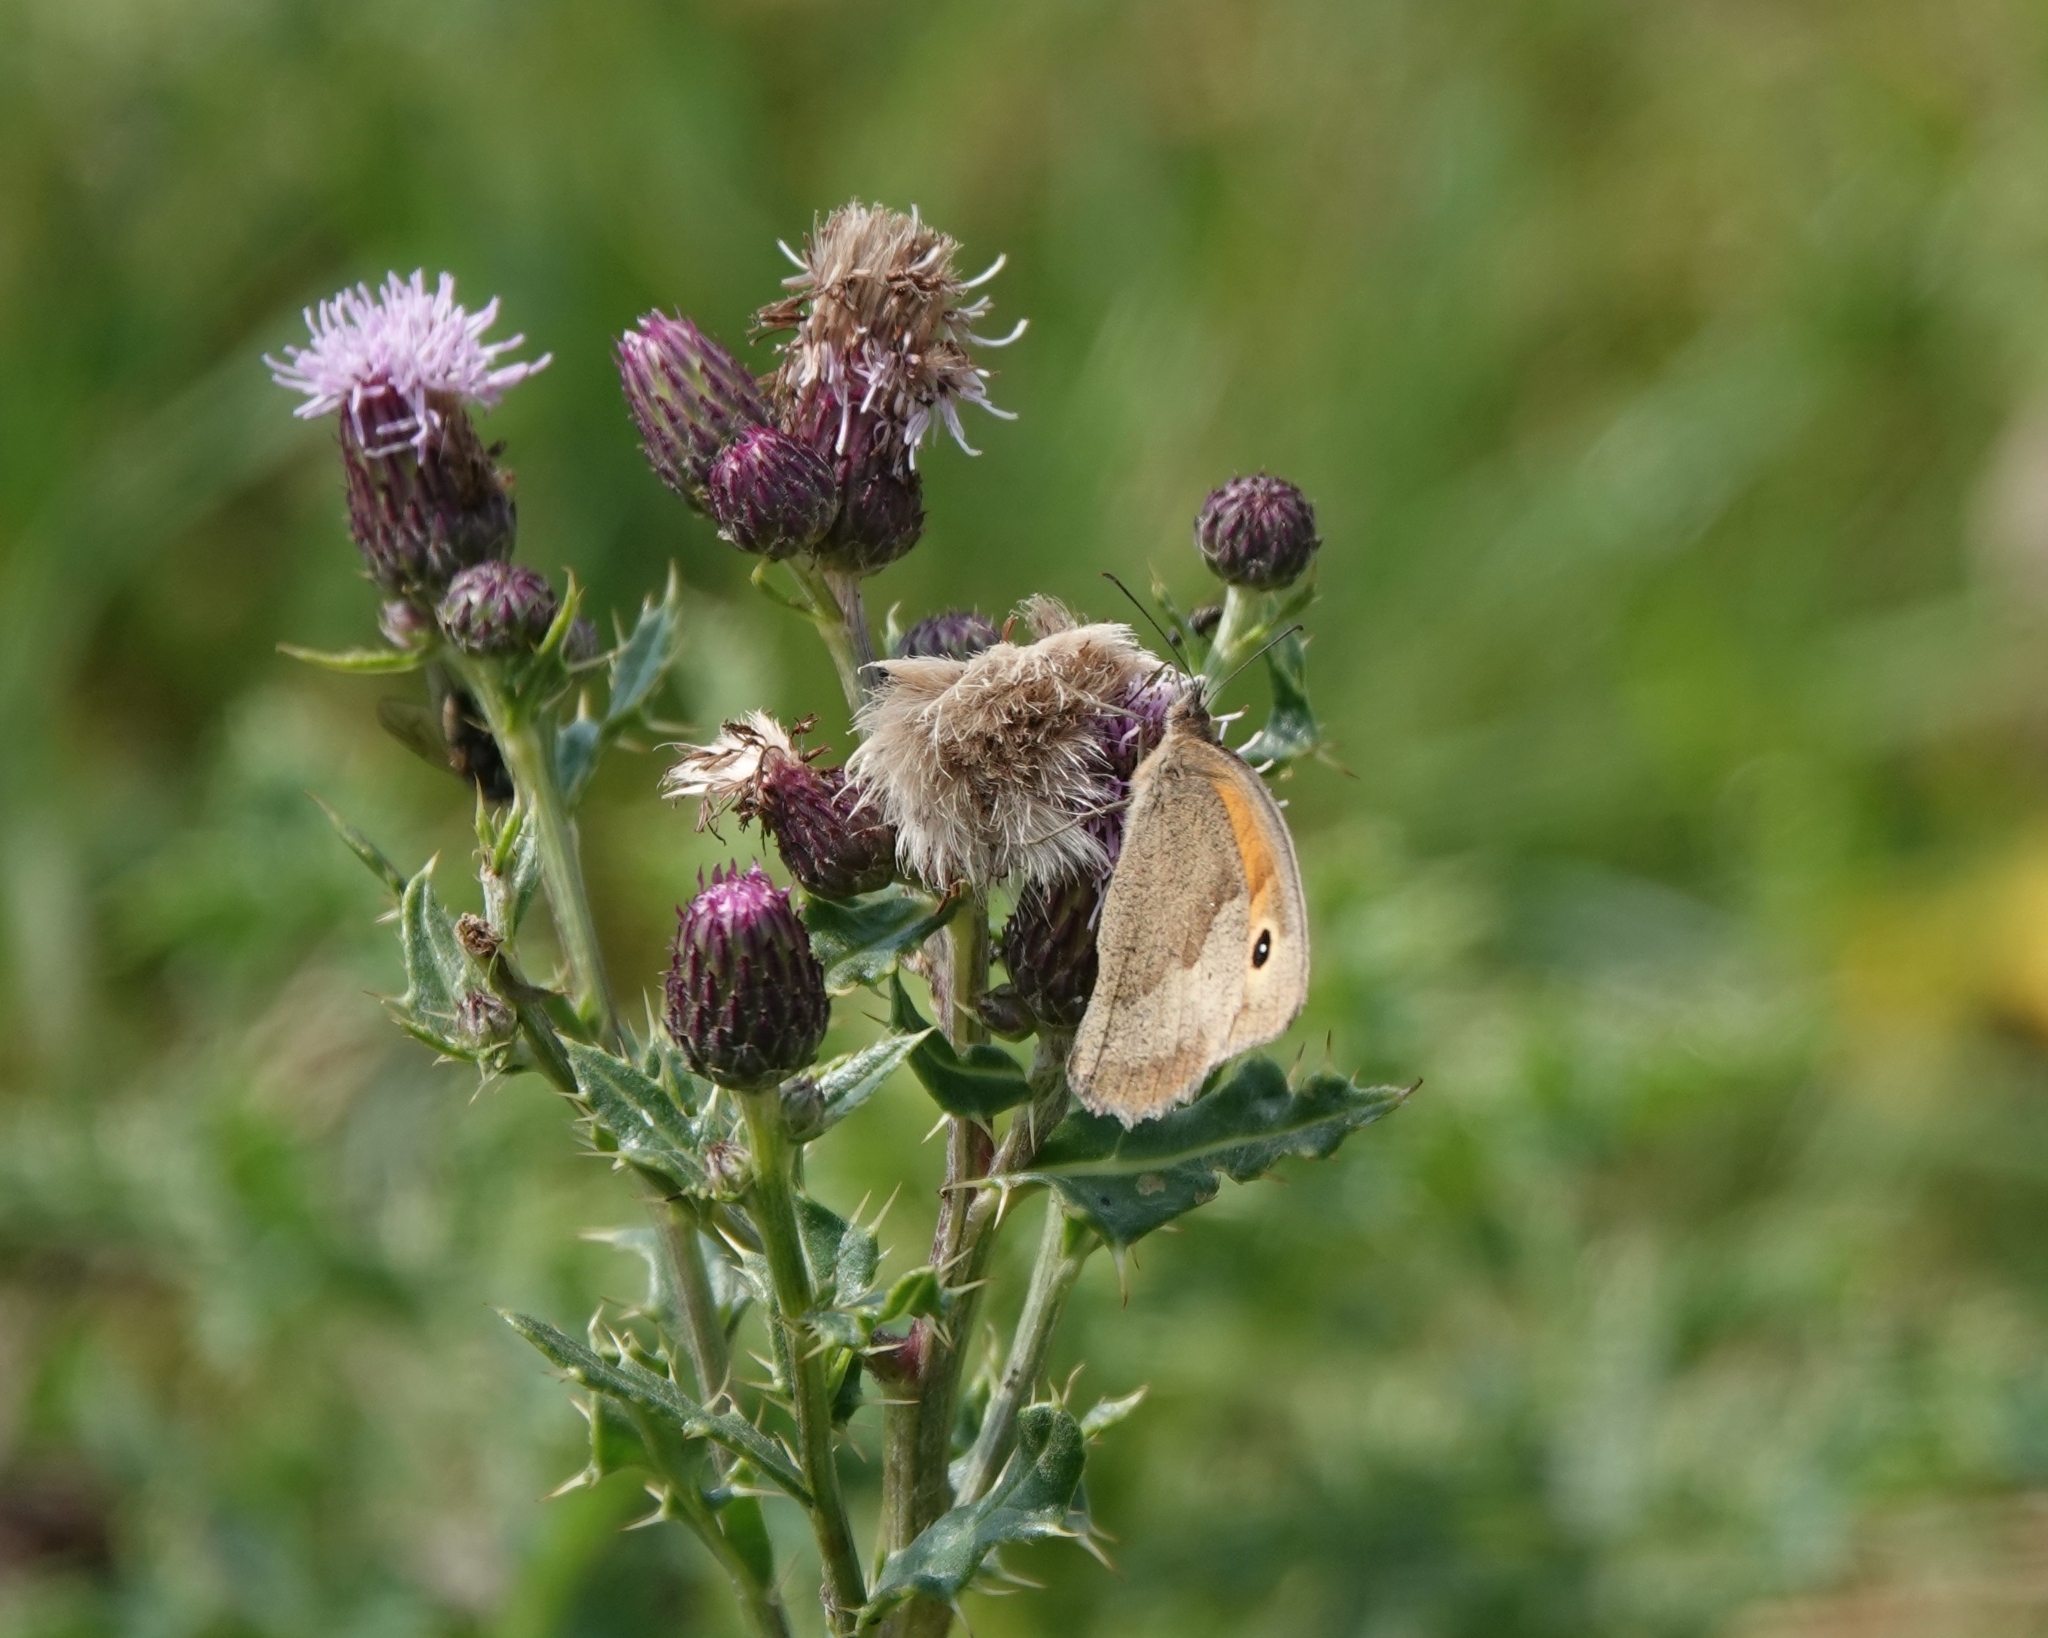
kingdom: Animalia
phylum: Arthropoda
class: Insecta
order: Lepidoptera
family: Nymphalidae
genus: Maniola
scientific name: Maniola jurtina
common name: Meadow brown
